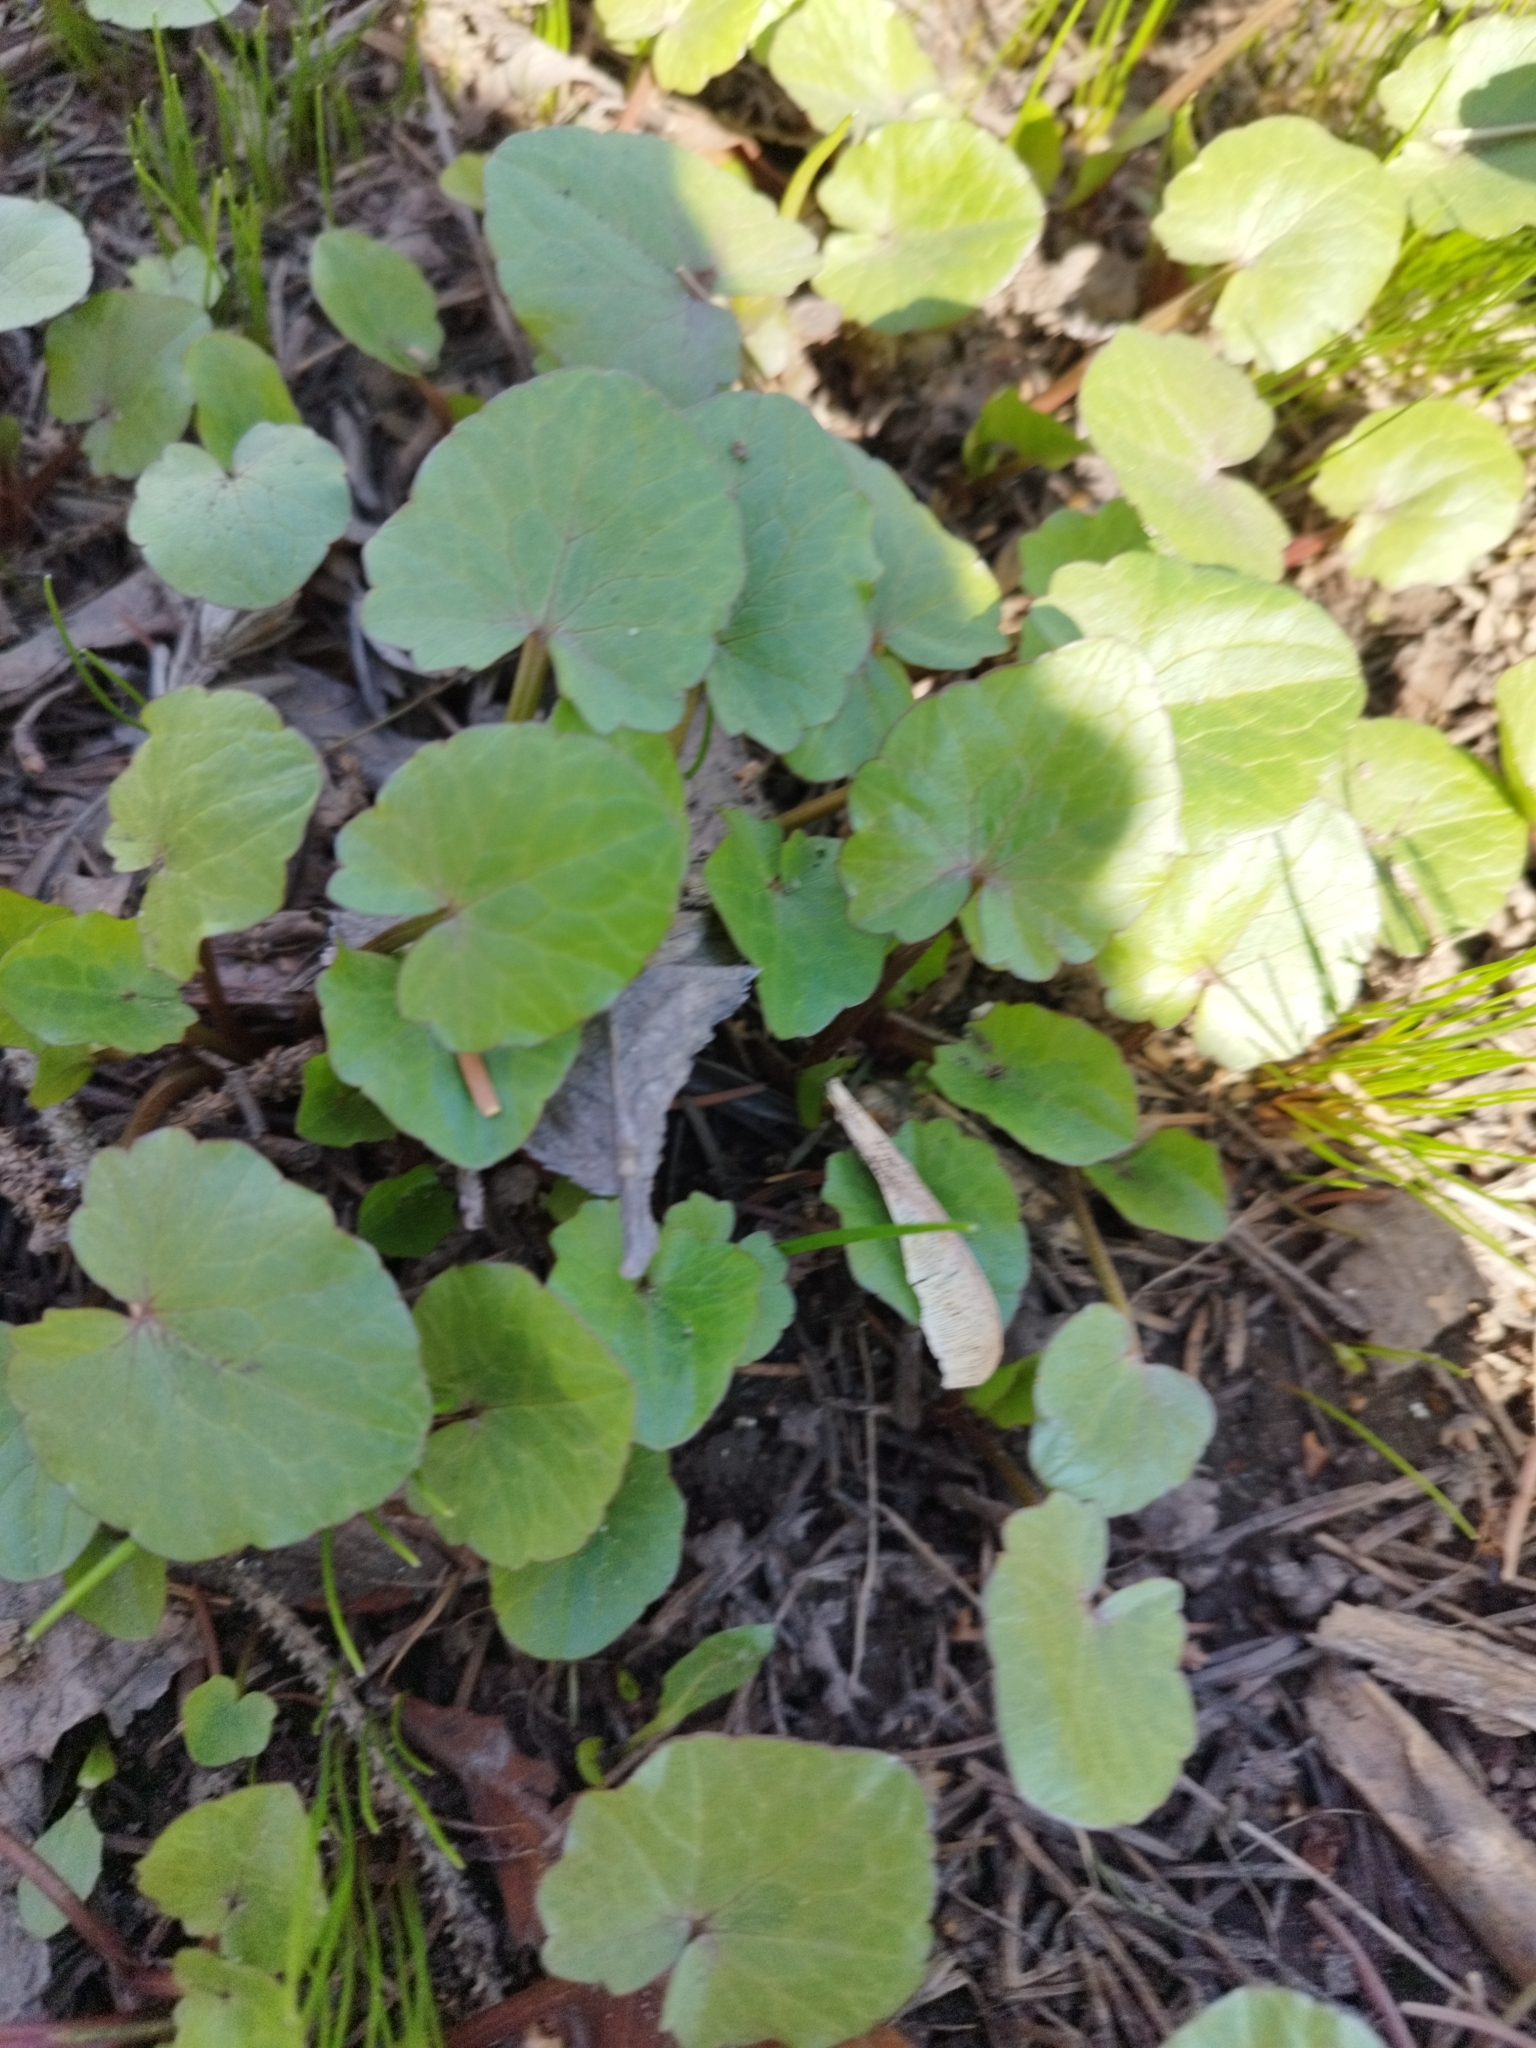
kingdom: Plantae
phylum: Tracheophyta
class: Magnoliopsida
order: Ranunculales
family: Ranunculaceae
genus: Ficaria
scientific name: Ficaria verna
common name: Lesser celandine
